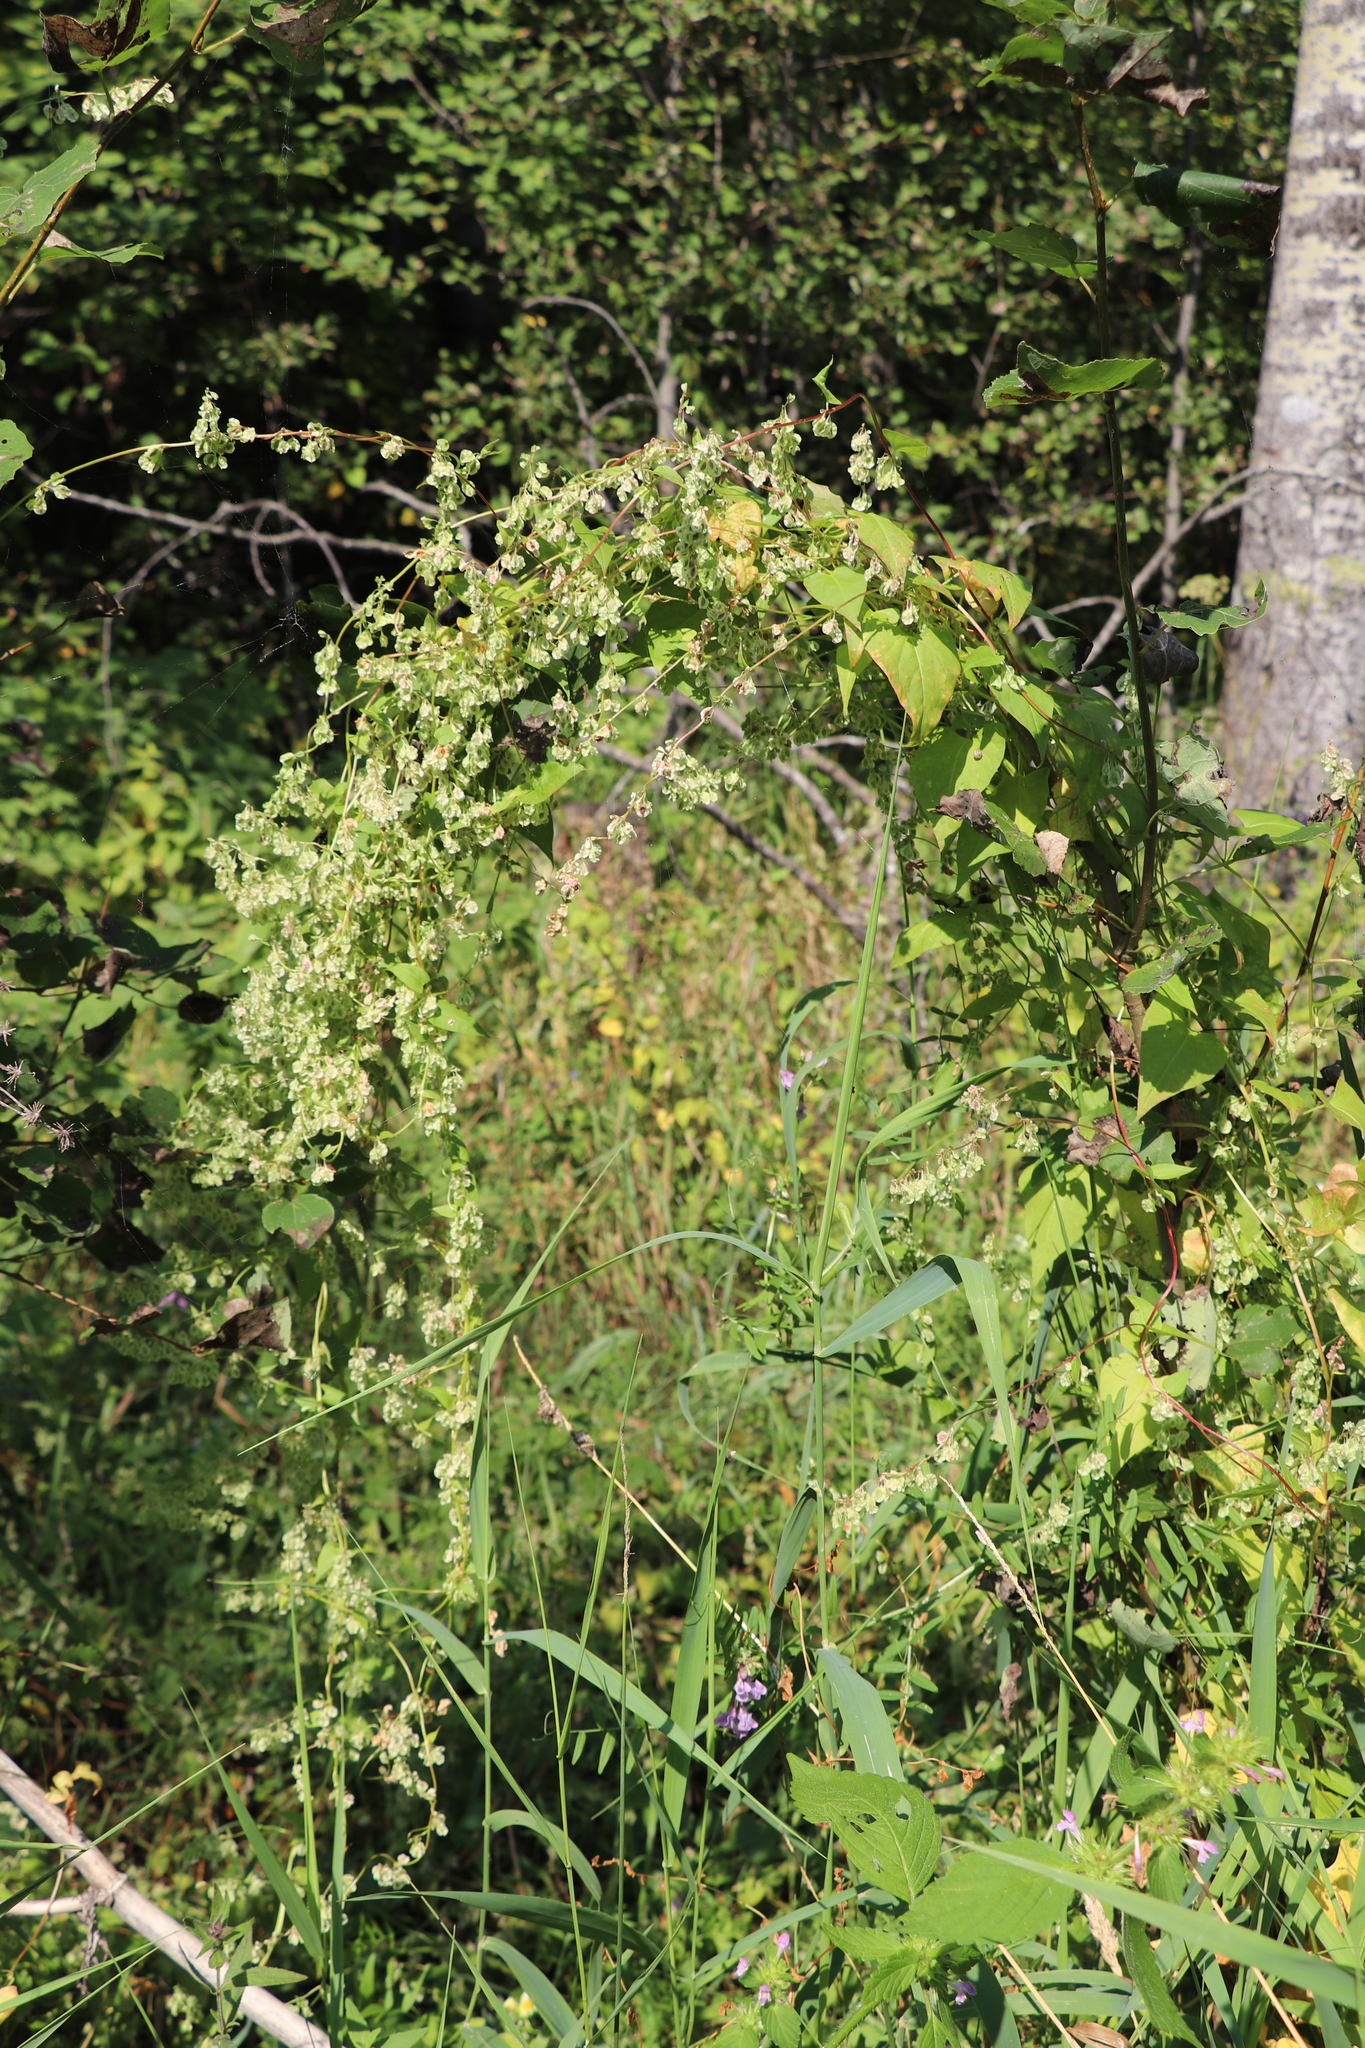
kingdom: Plantae
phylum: Tracheophyta
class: Magnoliopsida
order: Caryophyllales
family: Polygonaceae
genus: Fallopia
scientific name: Fallopia dumetorum
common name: Copse-bindweed
